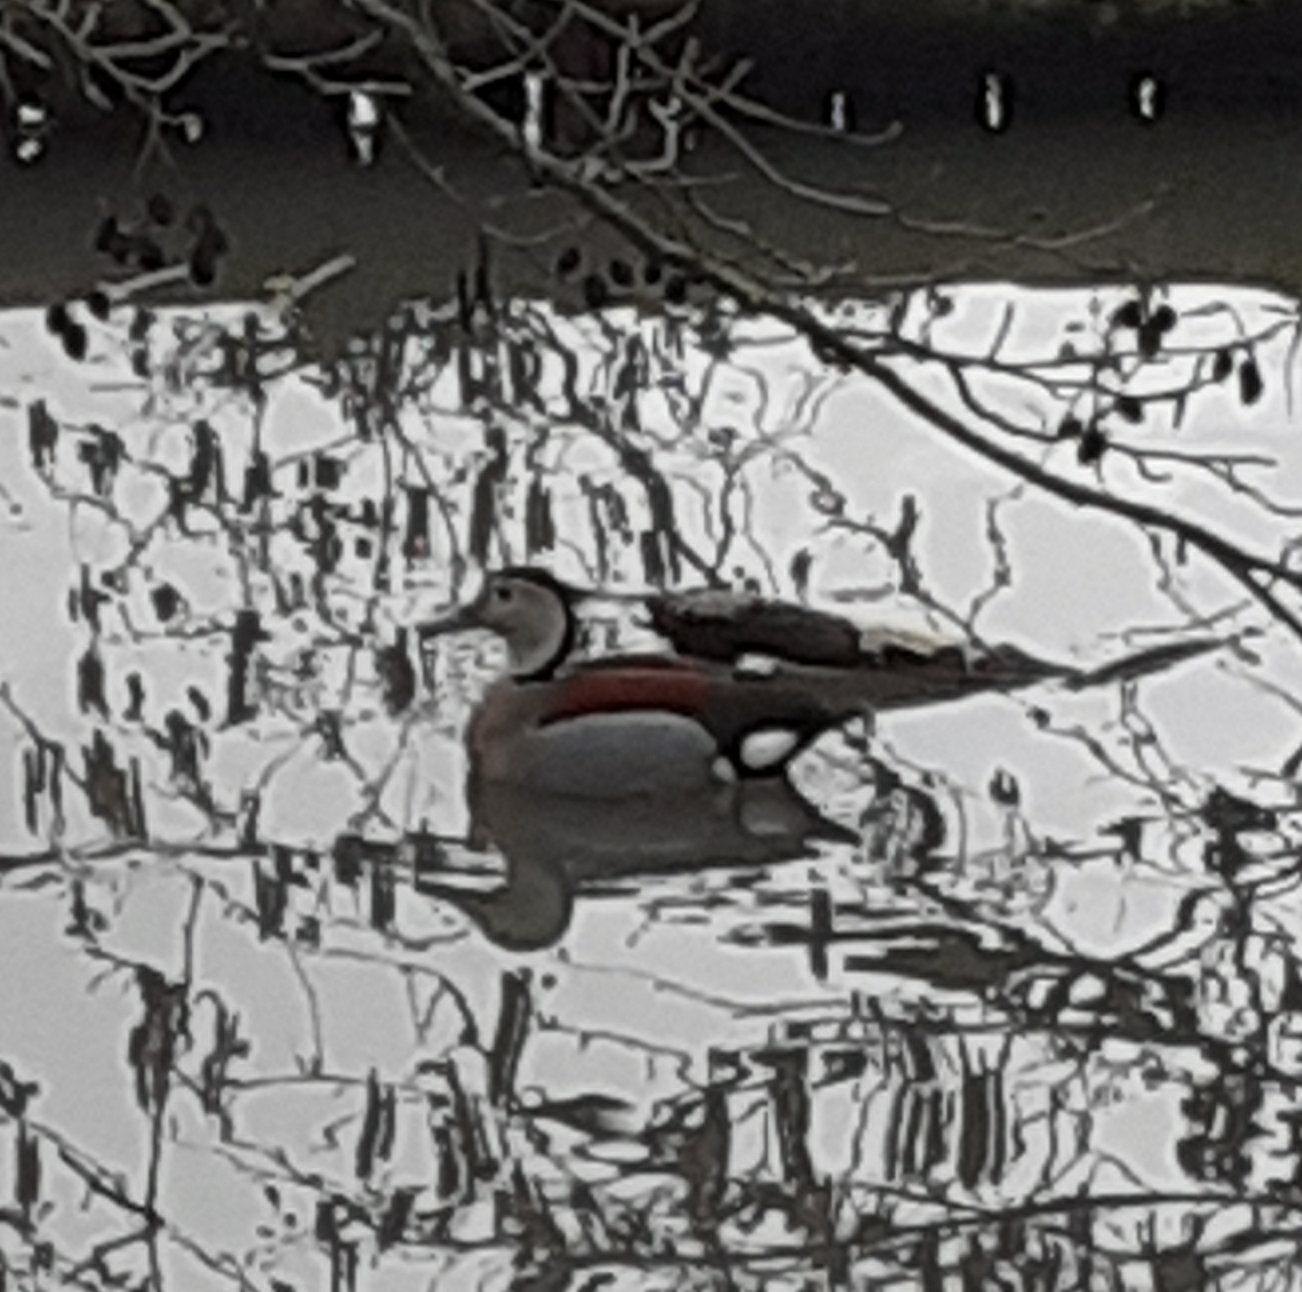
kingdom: Animalia
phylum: Chordata
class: Aves
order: Anseriformes
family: Anatidae
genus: Callonetta
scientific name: Callonetta leucophrys
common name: Ringed teal
